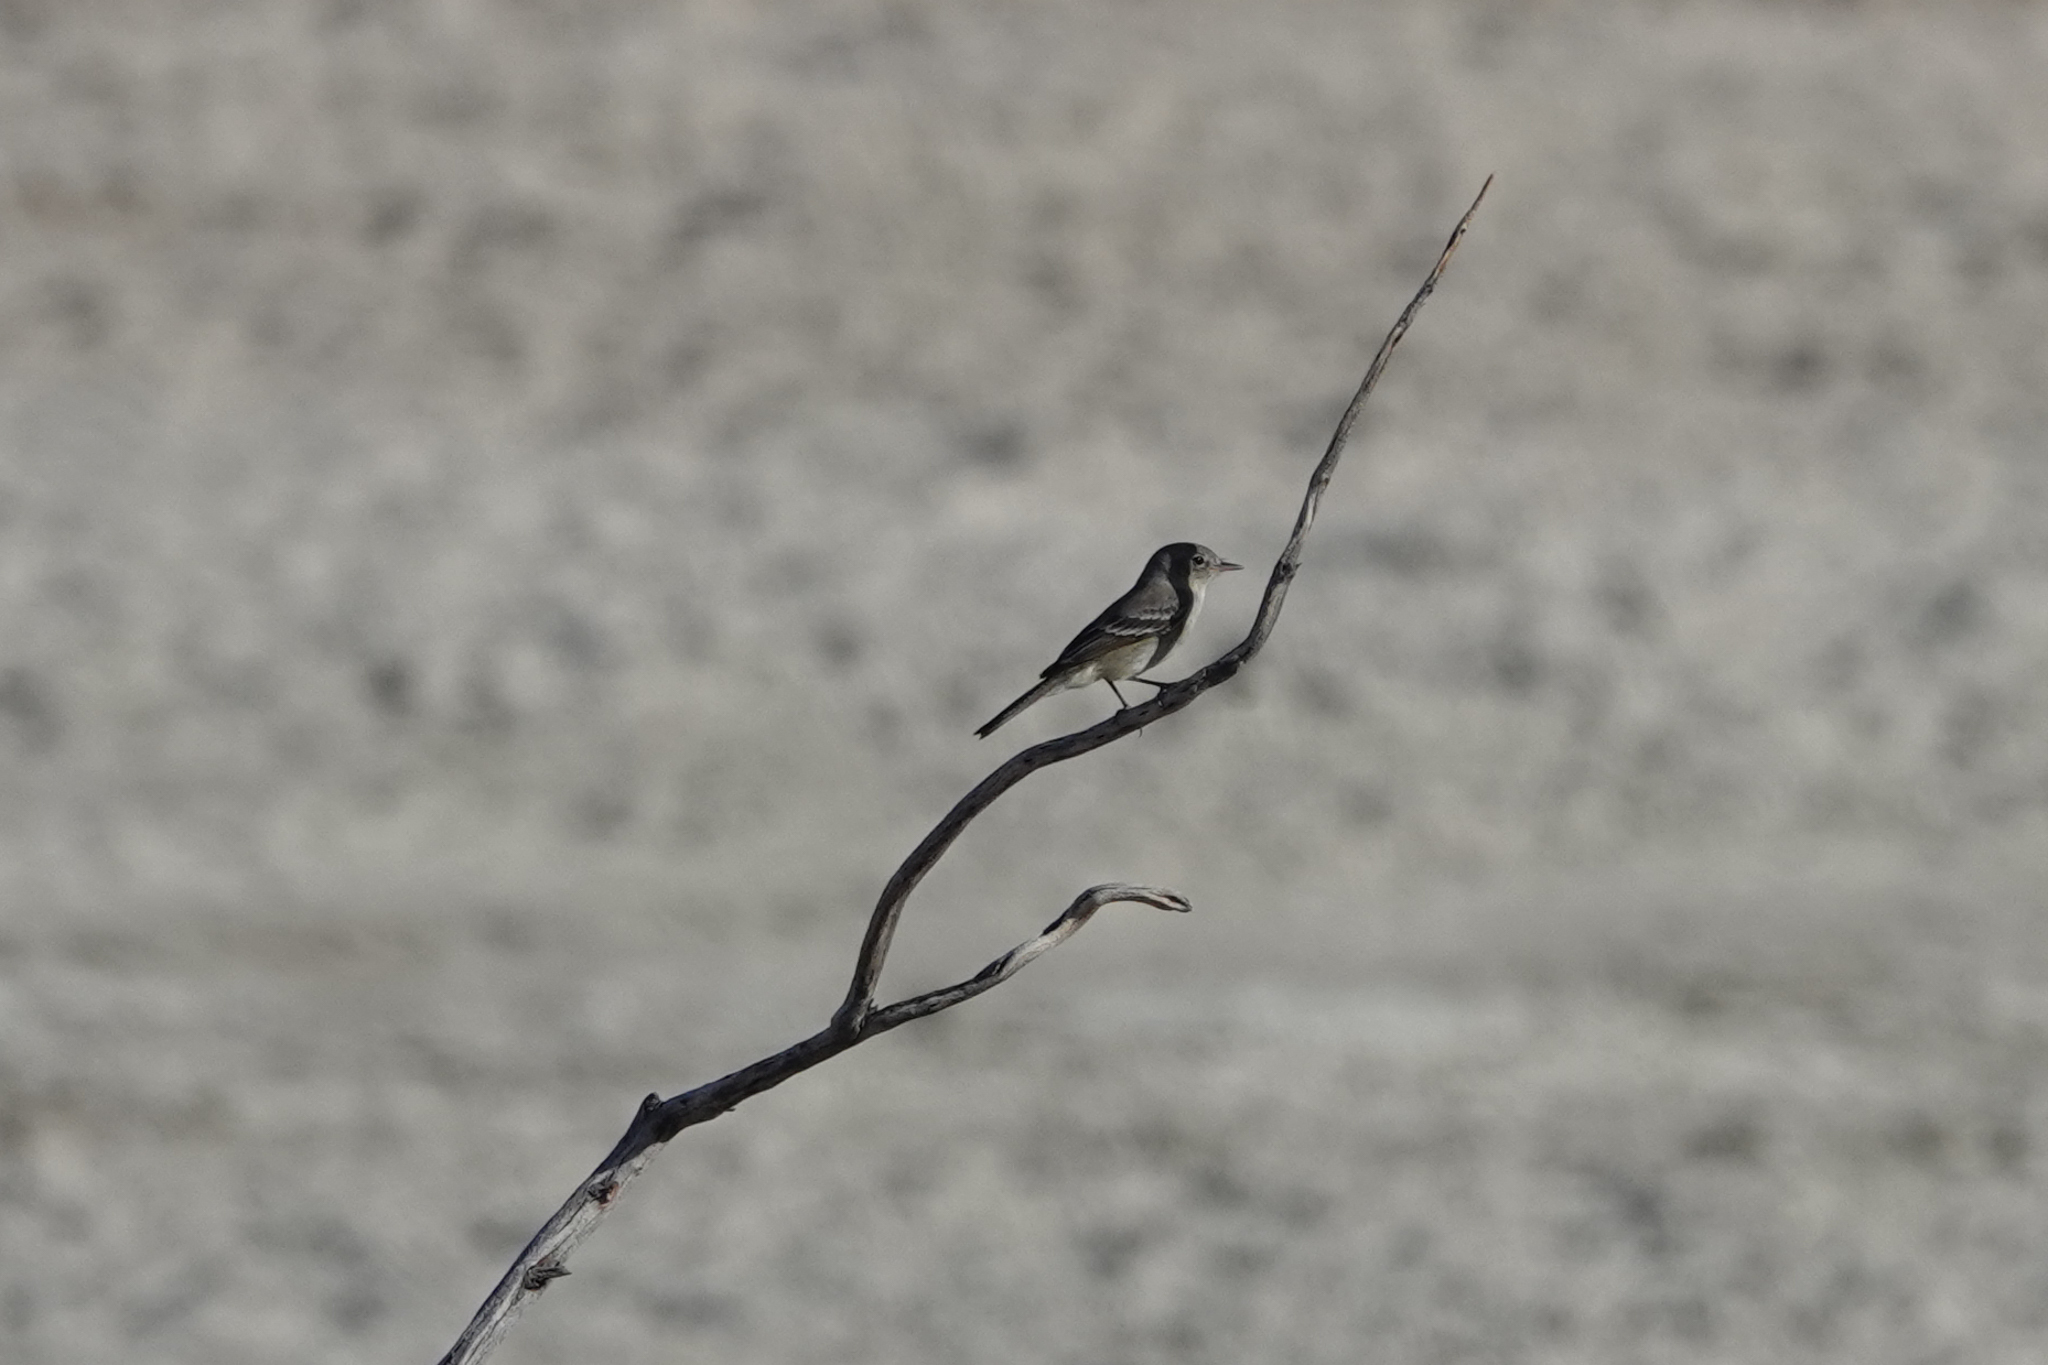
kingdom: Animalia
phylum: Chordata
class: Aves
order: Passeriformes
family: Tyrannidae
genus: Empidonax
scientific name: Empidonax
